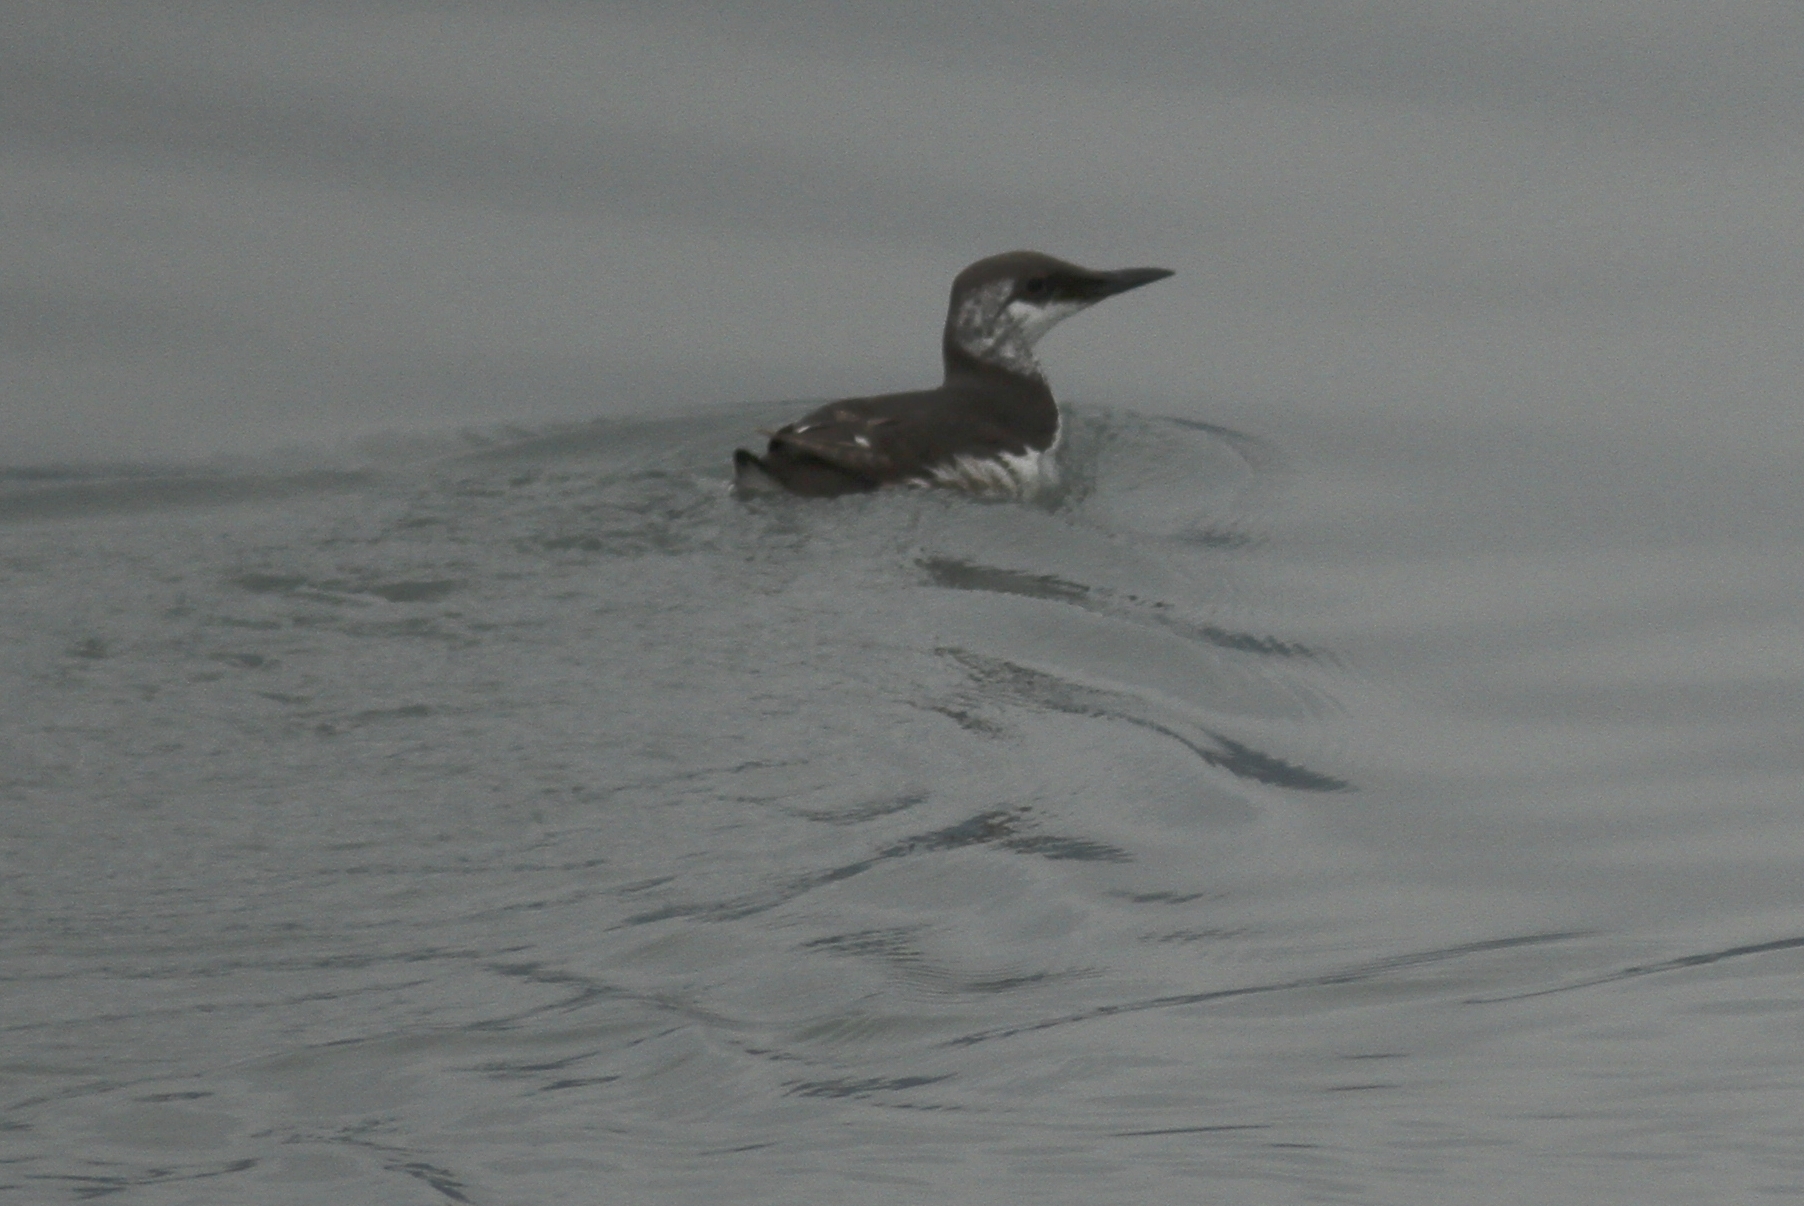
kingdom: Animalia
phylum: Chordata
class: Aves
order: Charadriiformes
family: Alcidae
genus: Uria
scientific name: Uria aalge
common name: Common murre
